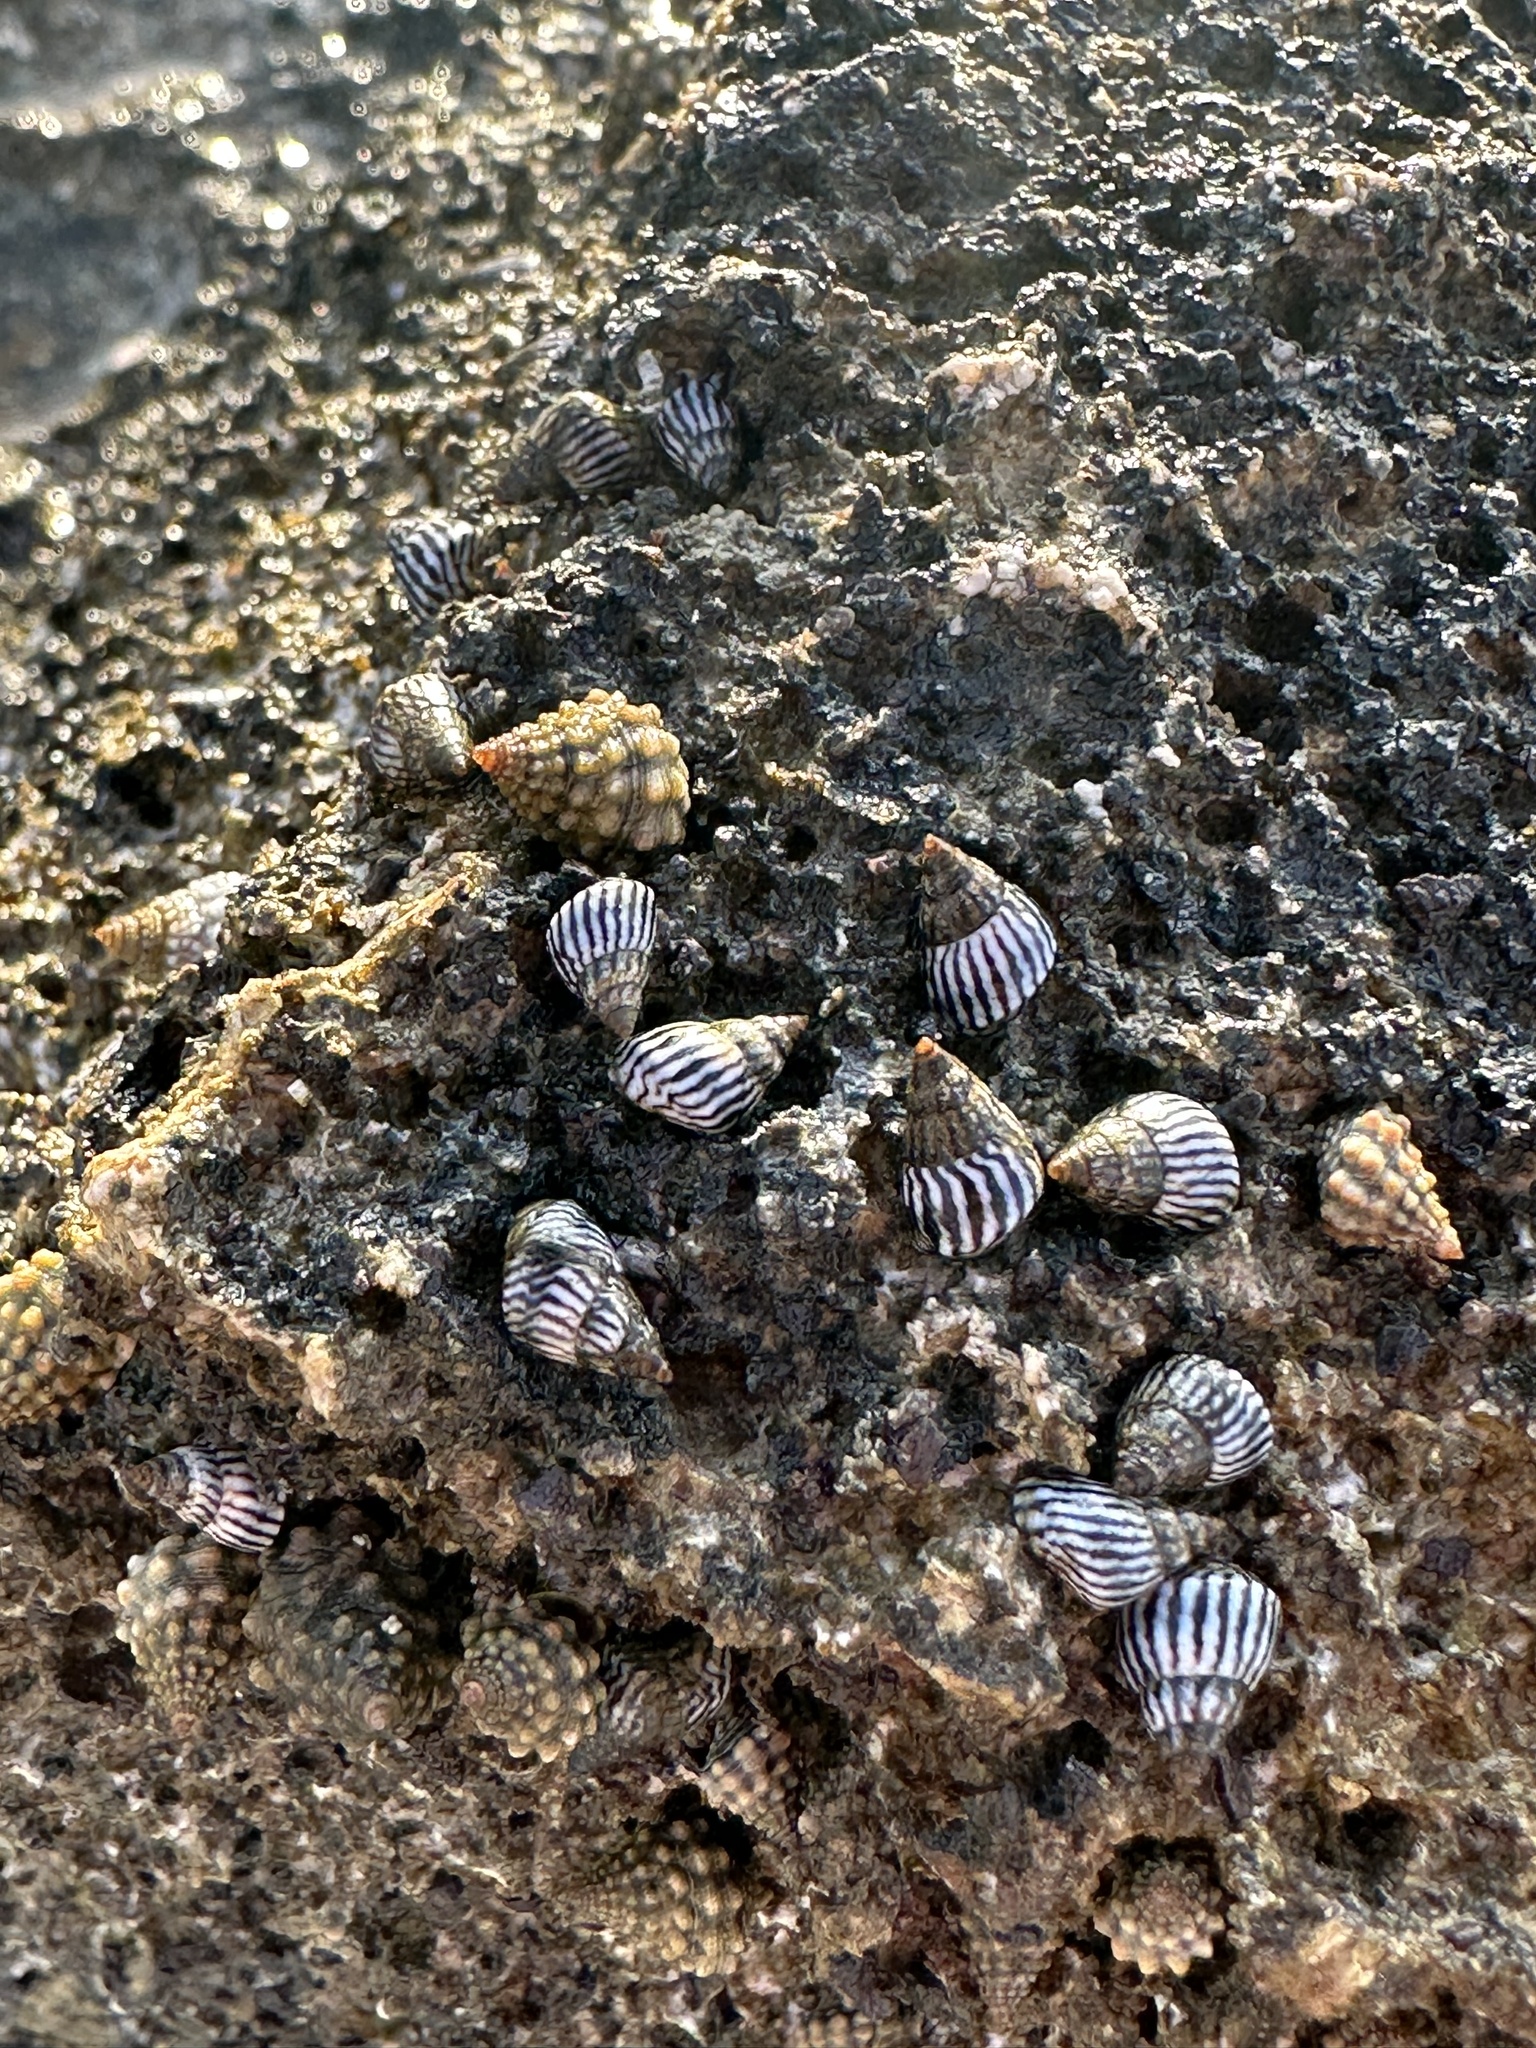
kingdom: Animalia
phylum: Mollusca
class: Gastropoda
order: Littorinimorpha
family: Littorinidae
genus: Echinolittorina
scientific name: Echinolittorina ziczac
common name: Zebra periwinkle
